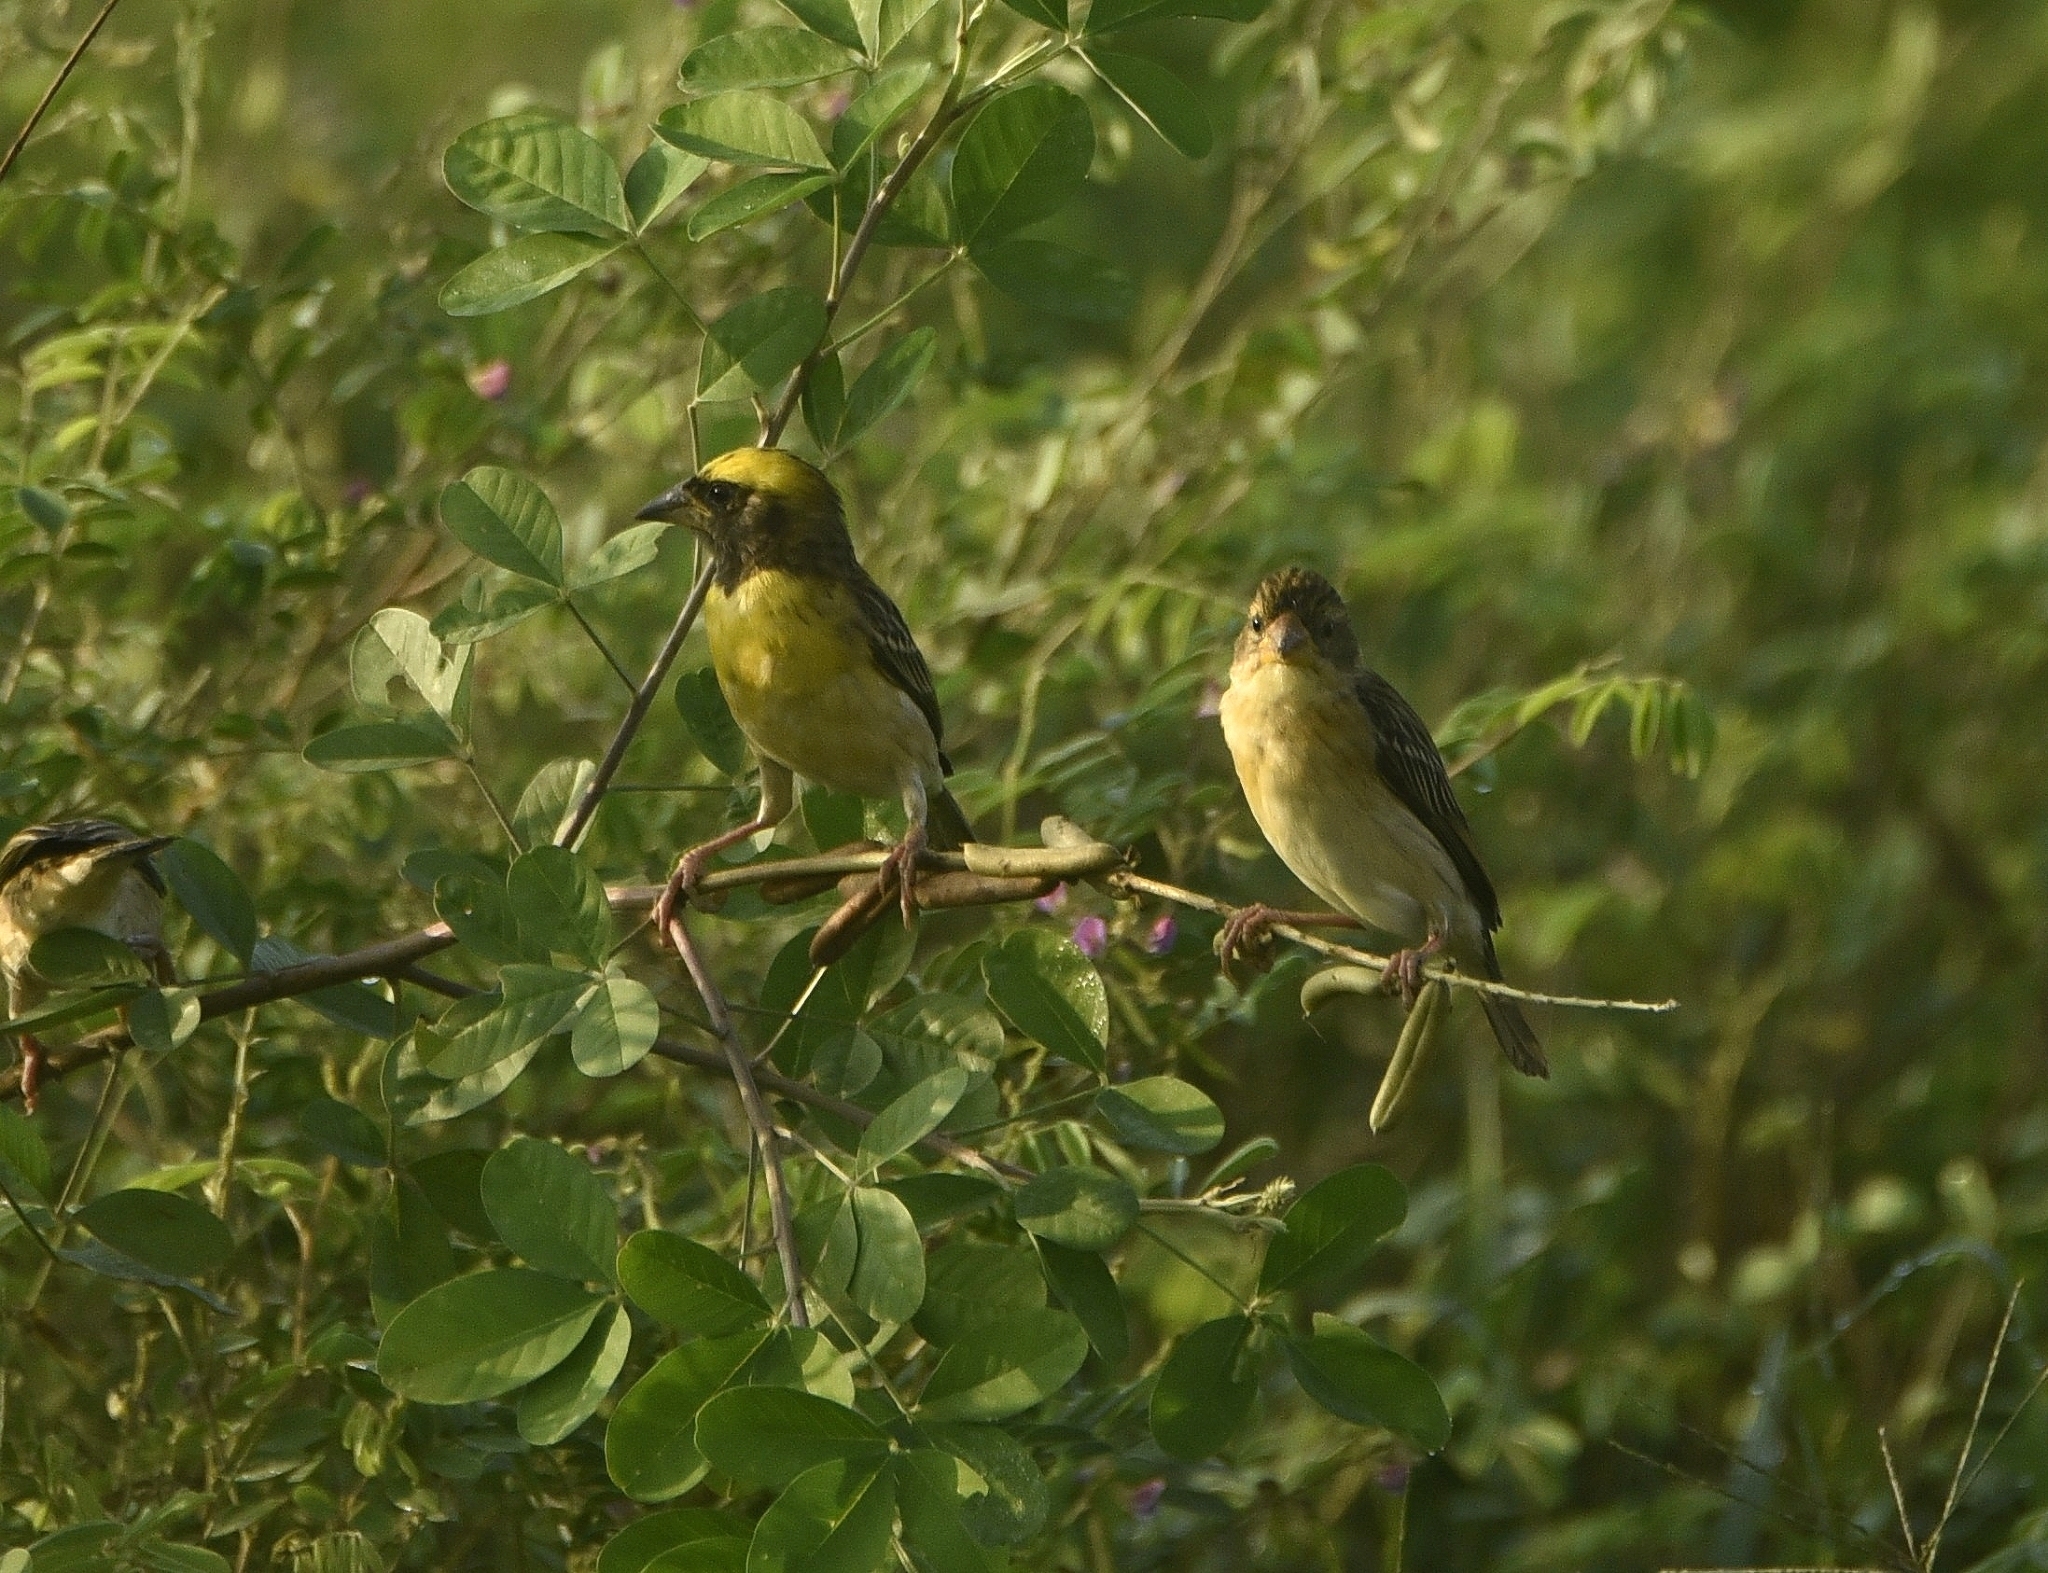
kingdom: Animalia
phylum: Chordata
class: Aves
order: Passeriformes
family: Ploceidae
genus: Ploceus
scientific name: Ploceus philippinus
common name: Baya weaver
